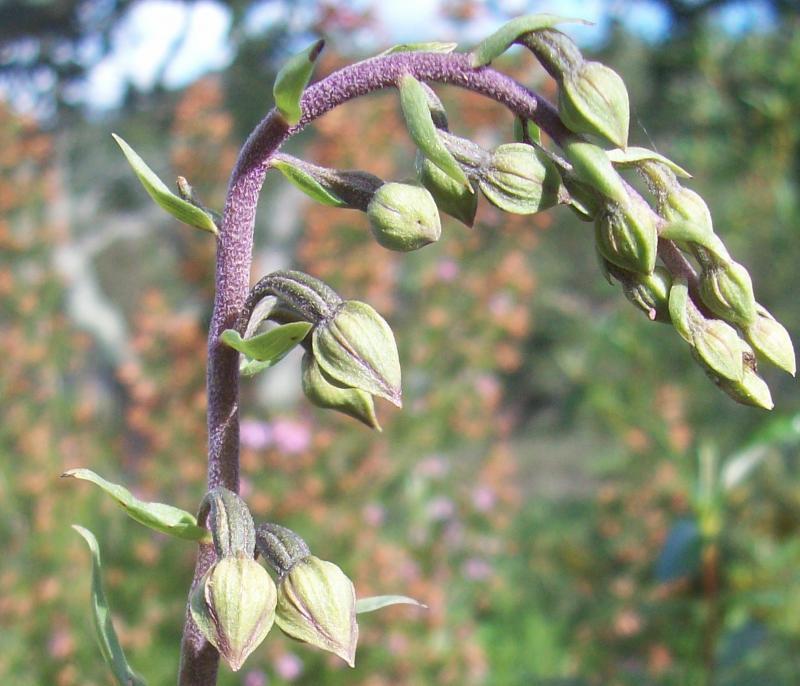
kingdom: Plantae
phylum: Tracheophyta
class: Liliopsida
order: Asparagales
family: Orchidaceae
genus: Epipactis
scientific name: Epipactis helleborine
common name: Broad-leaved helleborine
